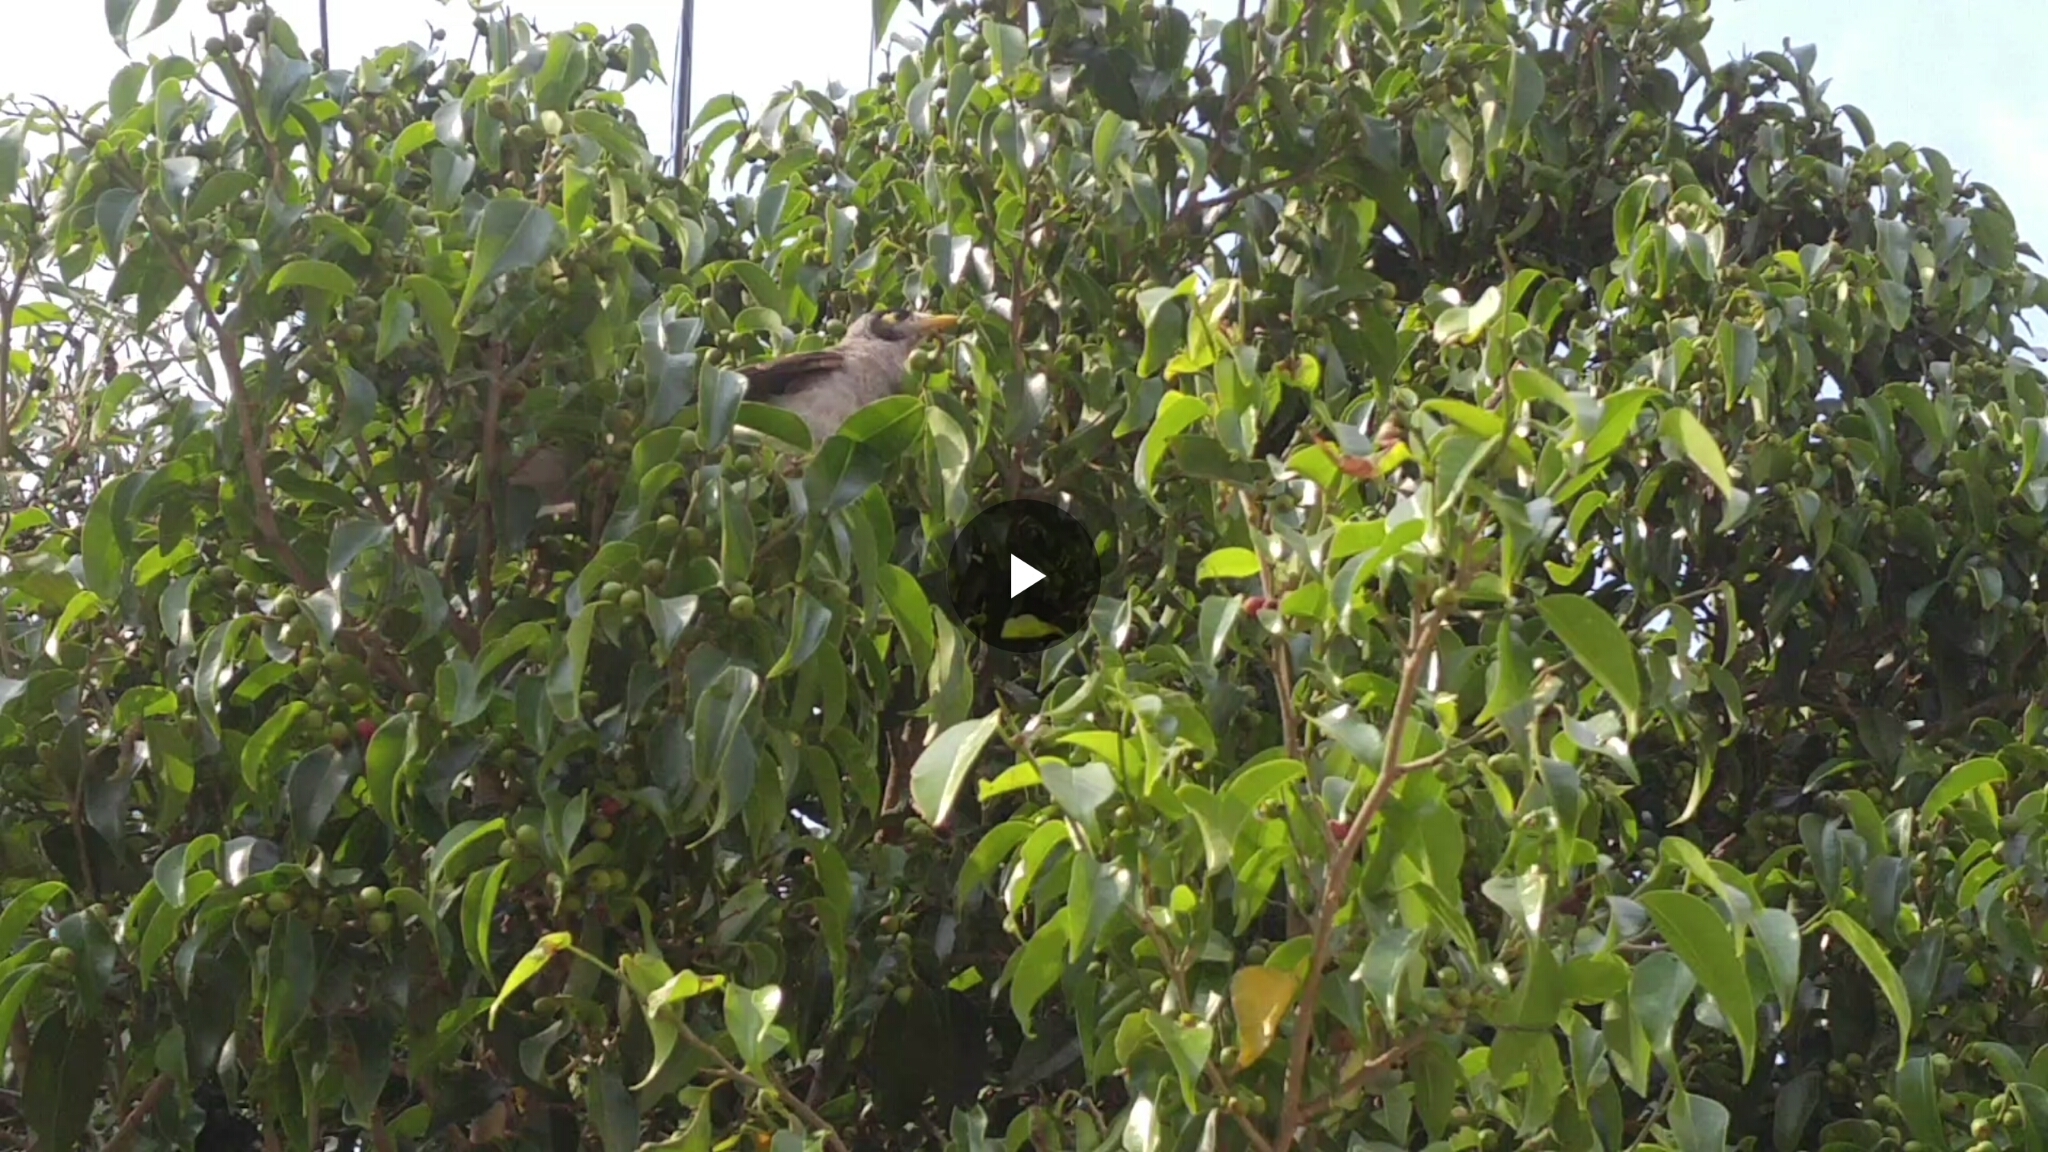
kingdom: Animalia
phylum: Chordata
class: Aves
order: Passeriformes
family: Meliphagidae
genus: Manorina
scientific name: Manorina melanocephala
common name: Noisy miner
